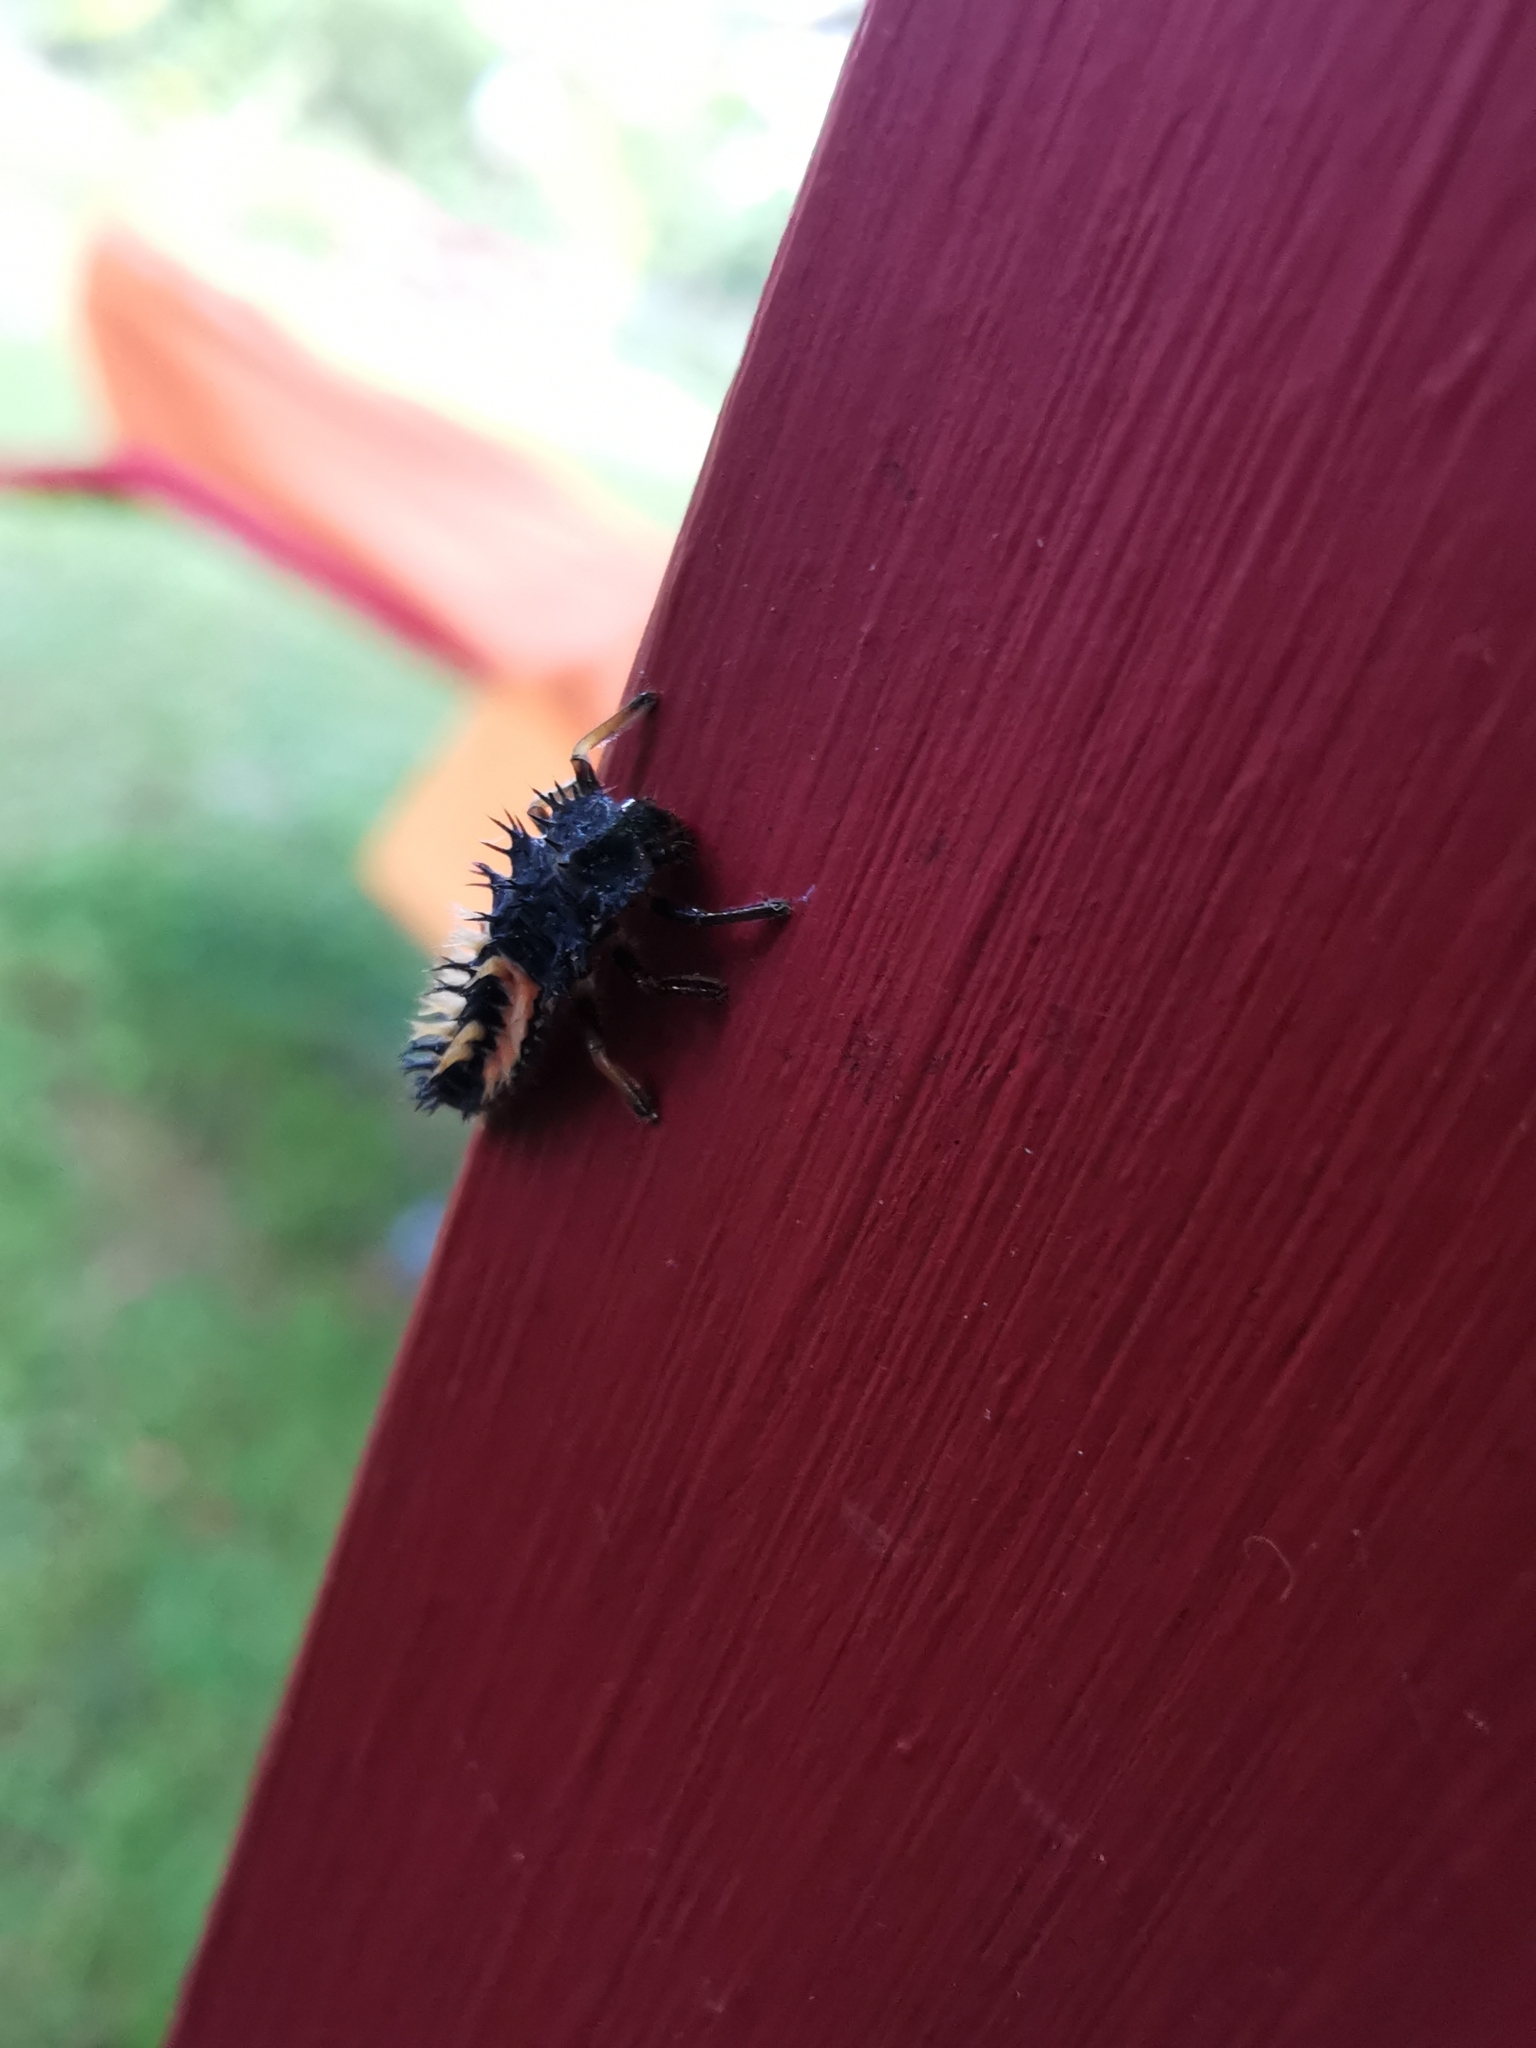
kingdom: Animalia
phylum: Arthropoda
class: Insecta
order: Coleoptera
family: Coccinellidae
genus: Harmonia
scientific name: Harmonia axyridis
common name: Harlequin ladybird
